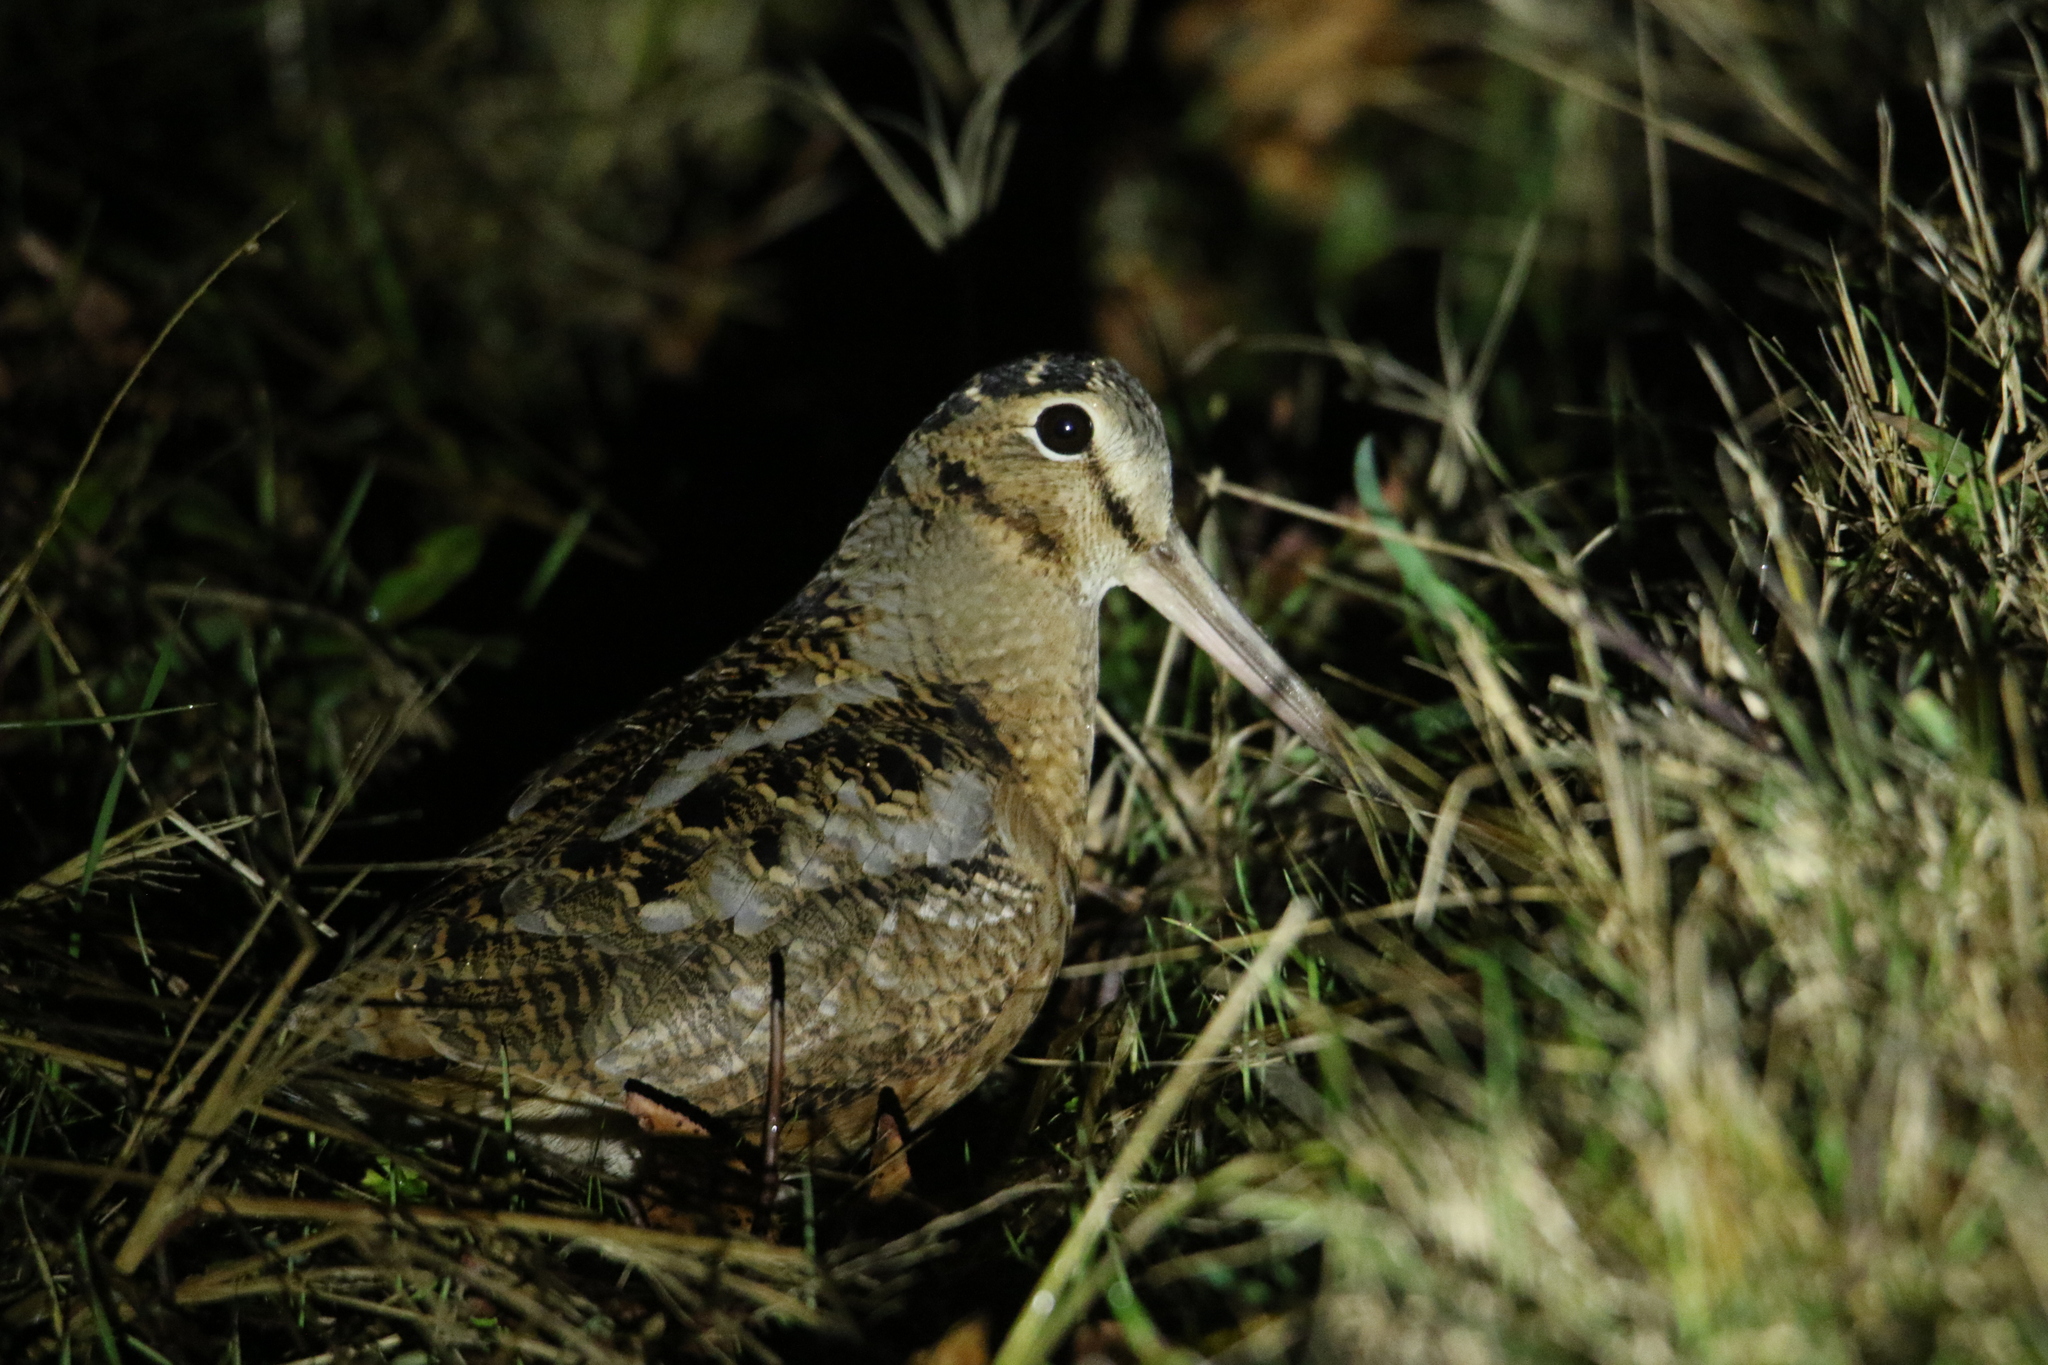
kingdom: Animalia
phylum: Chordata
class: Aves
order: Charadriiformes
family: Scolopacidae
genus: Scolopax
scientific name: Scolopax minor
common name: American woodcock
